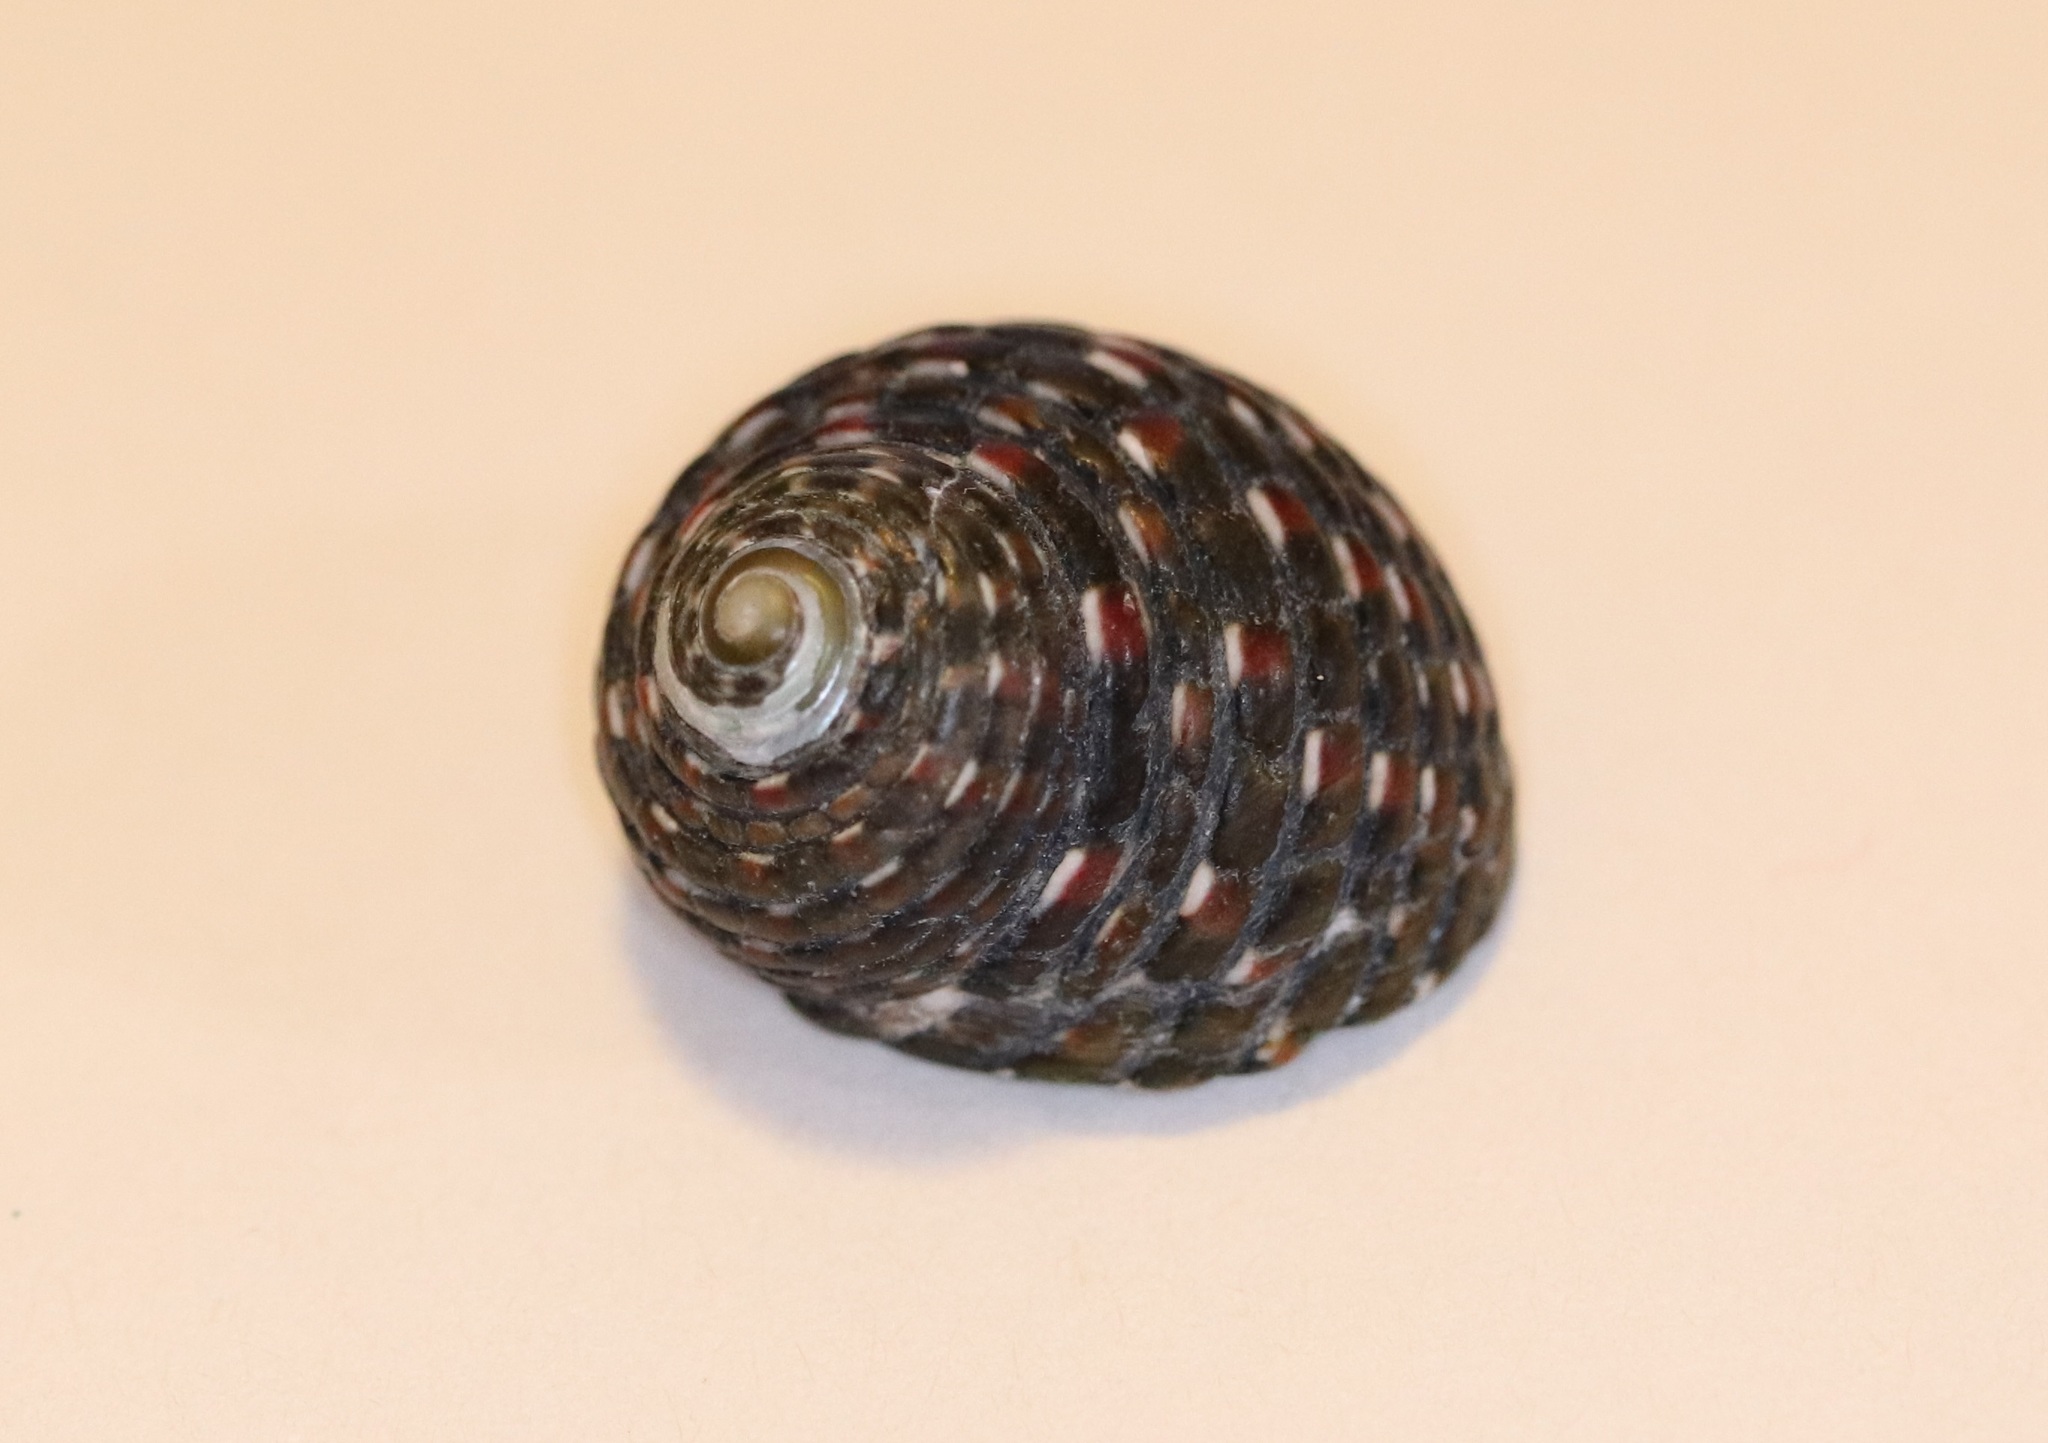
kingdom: Animalia
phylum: Mollusca
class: Gastropoda
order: Trochida
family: Trochidae
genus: Monodonta
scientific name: Monodonta confusa
